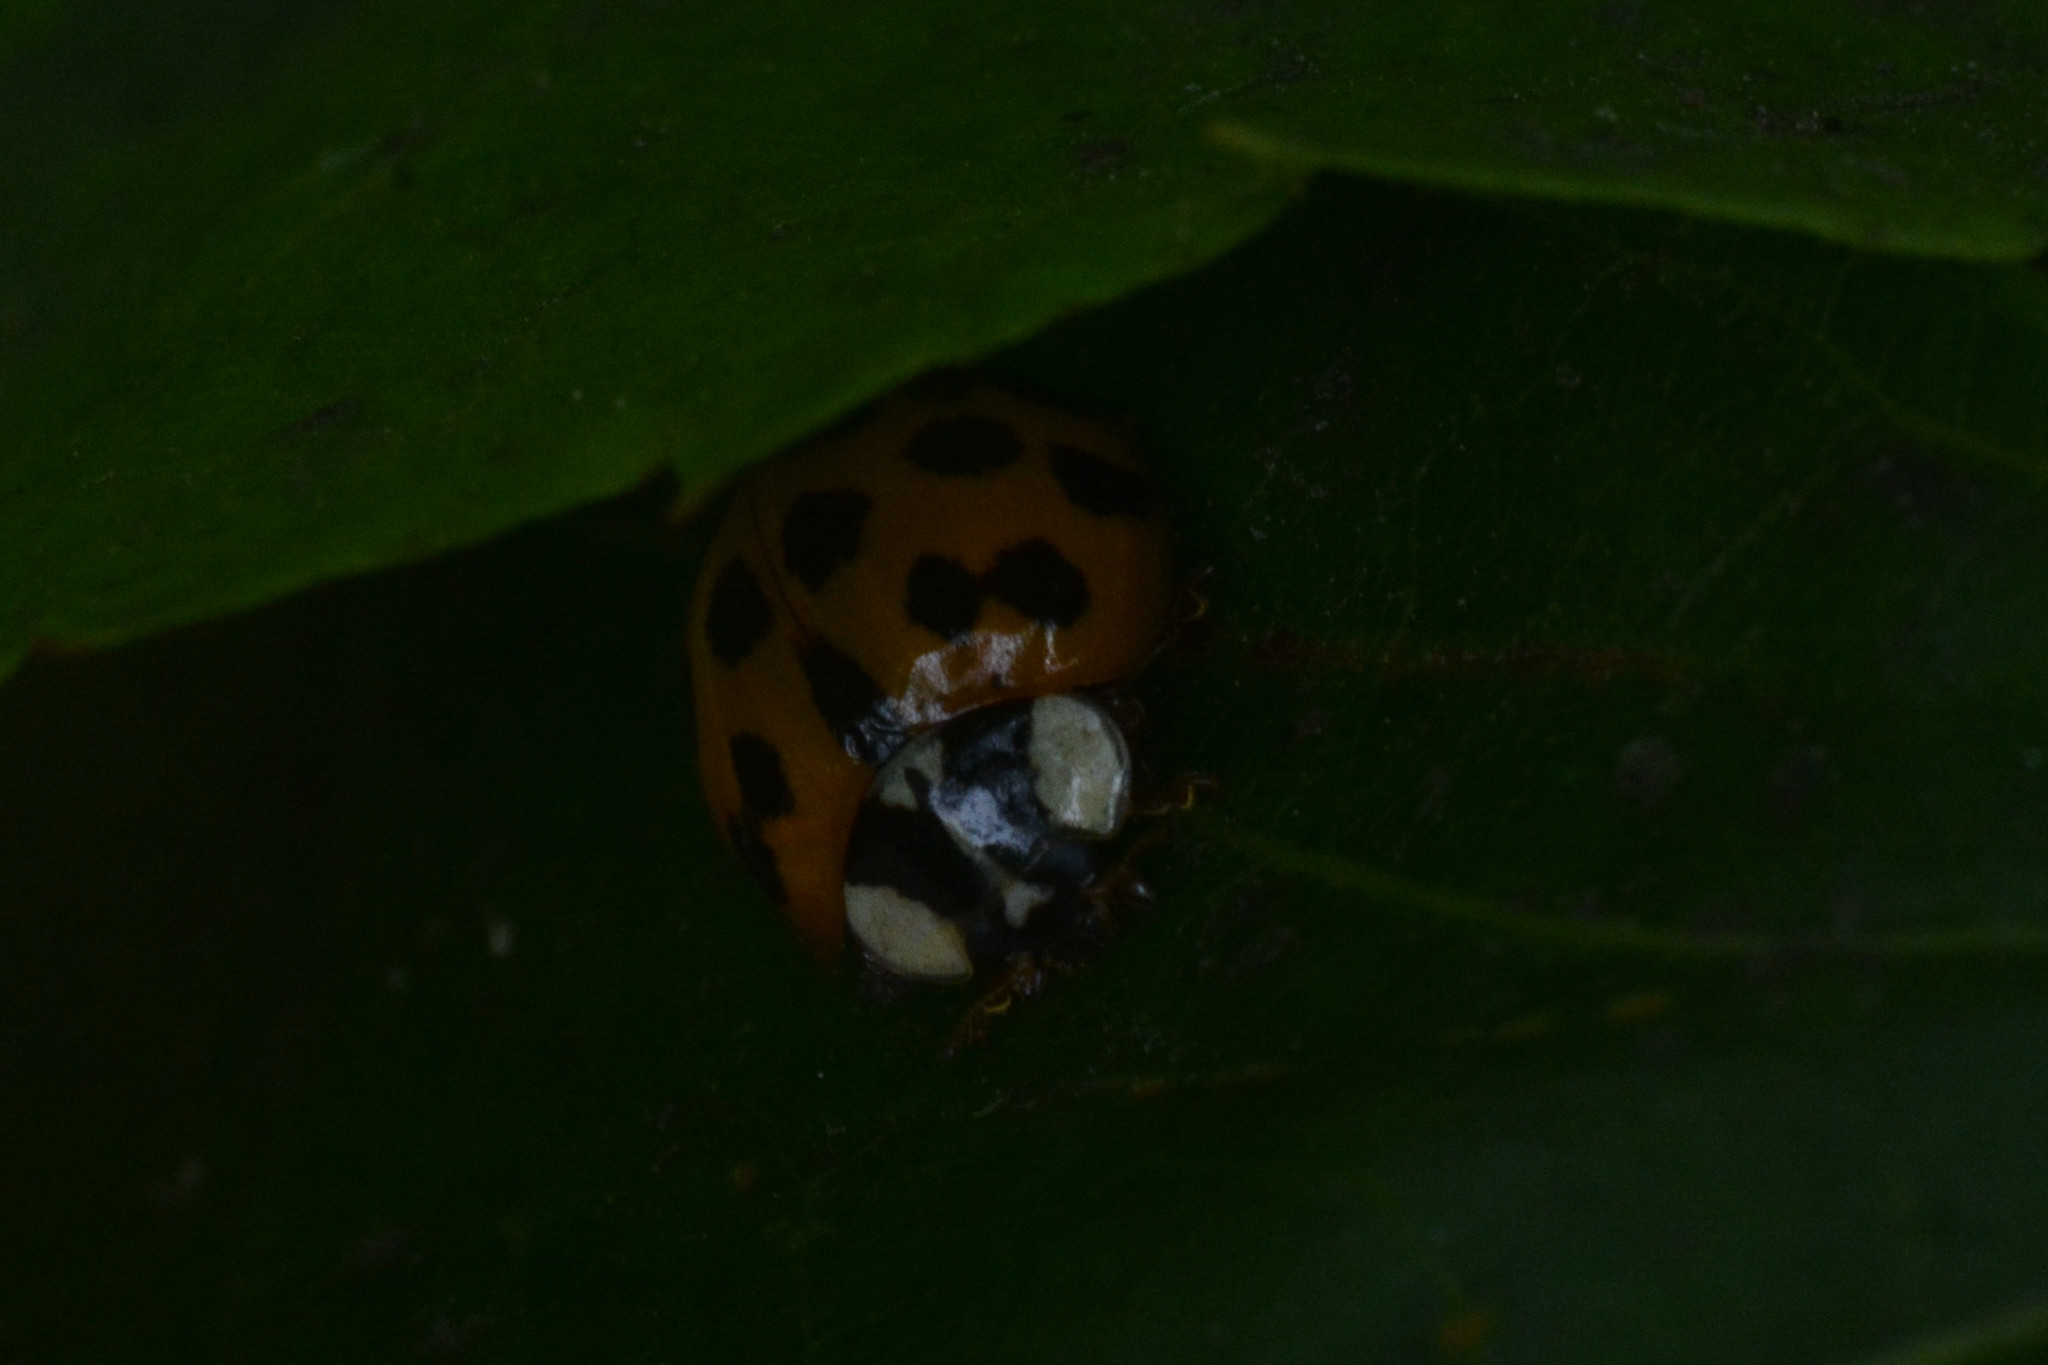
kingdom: Animalia
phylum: Arthropoda
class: Insecta
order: Coleoptera
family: Coccinellidae
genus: Harmonia
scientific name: Harmonia axyridis
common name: Harlequin ladybird
